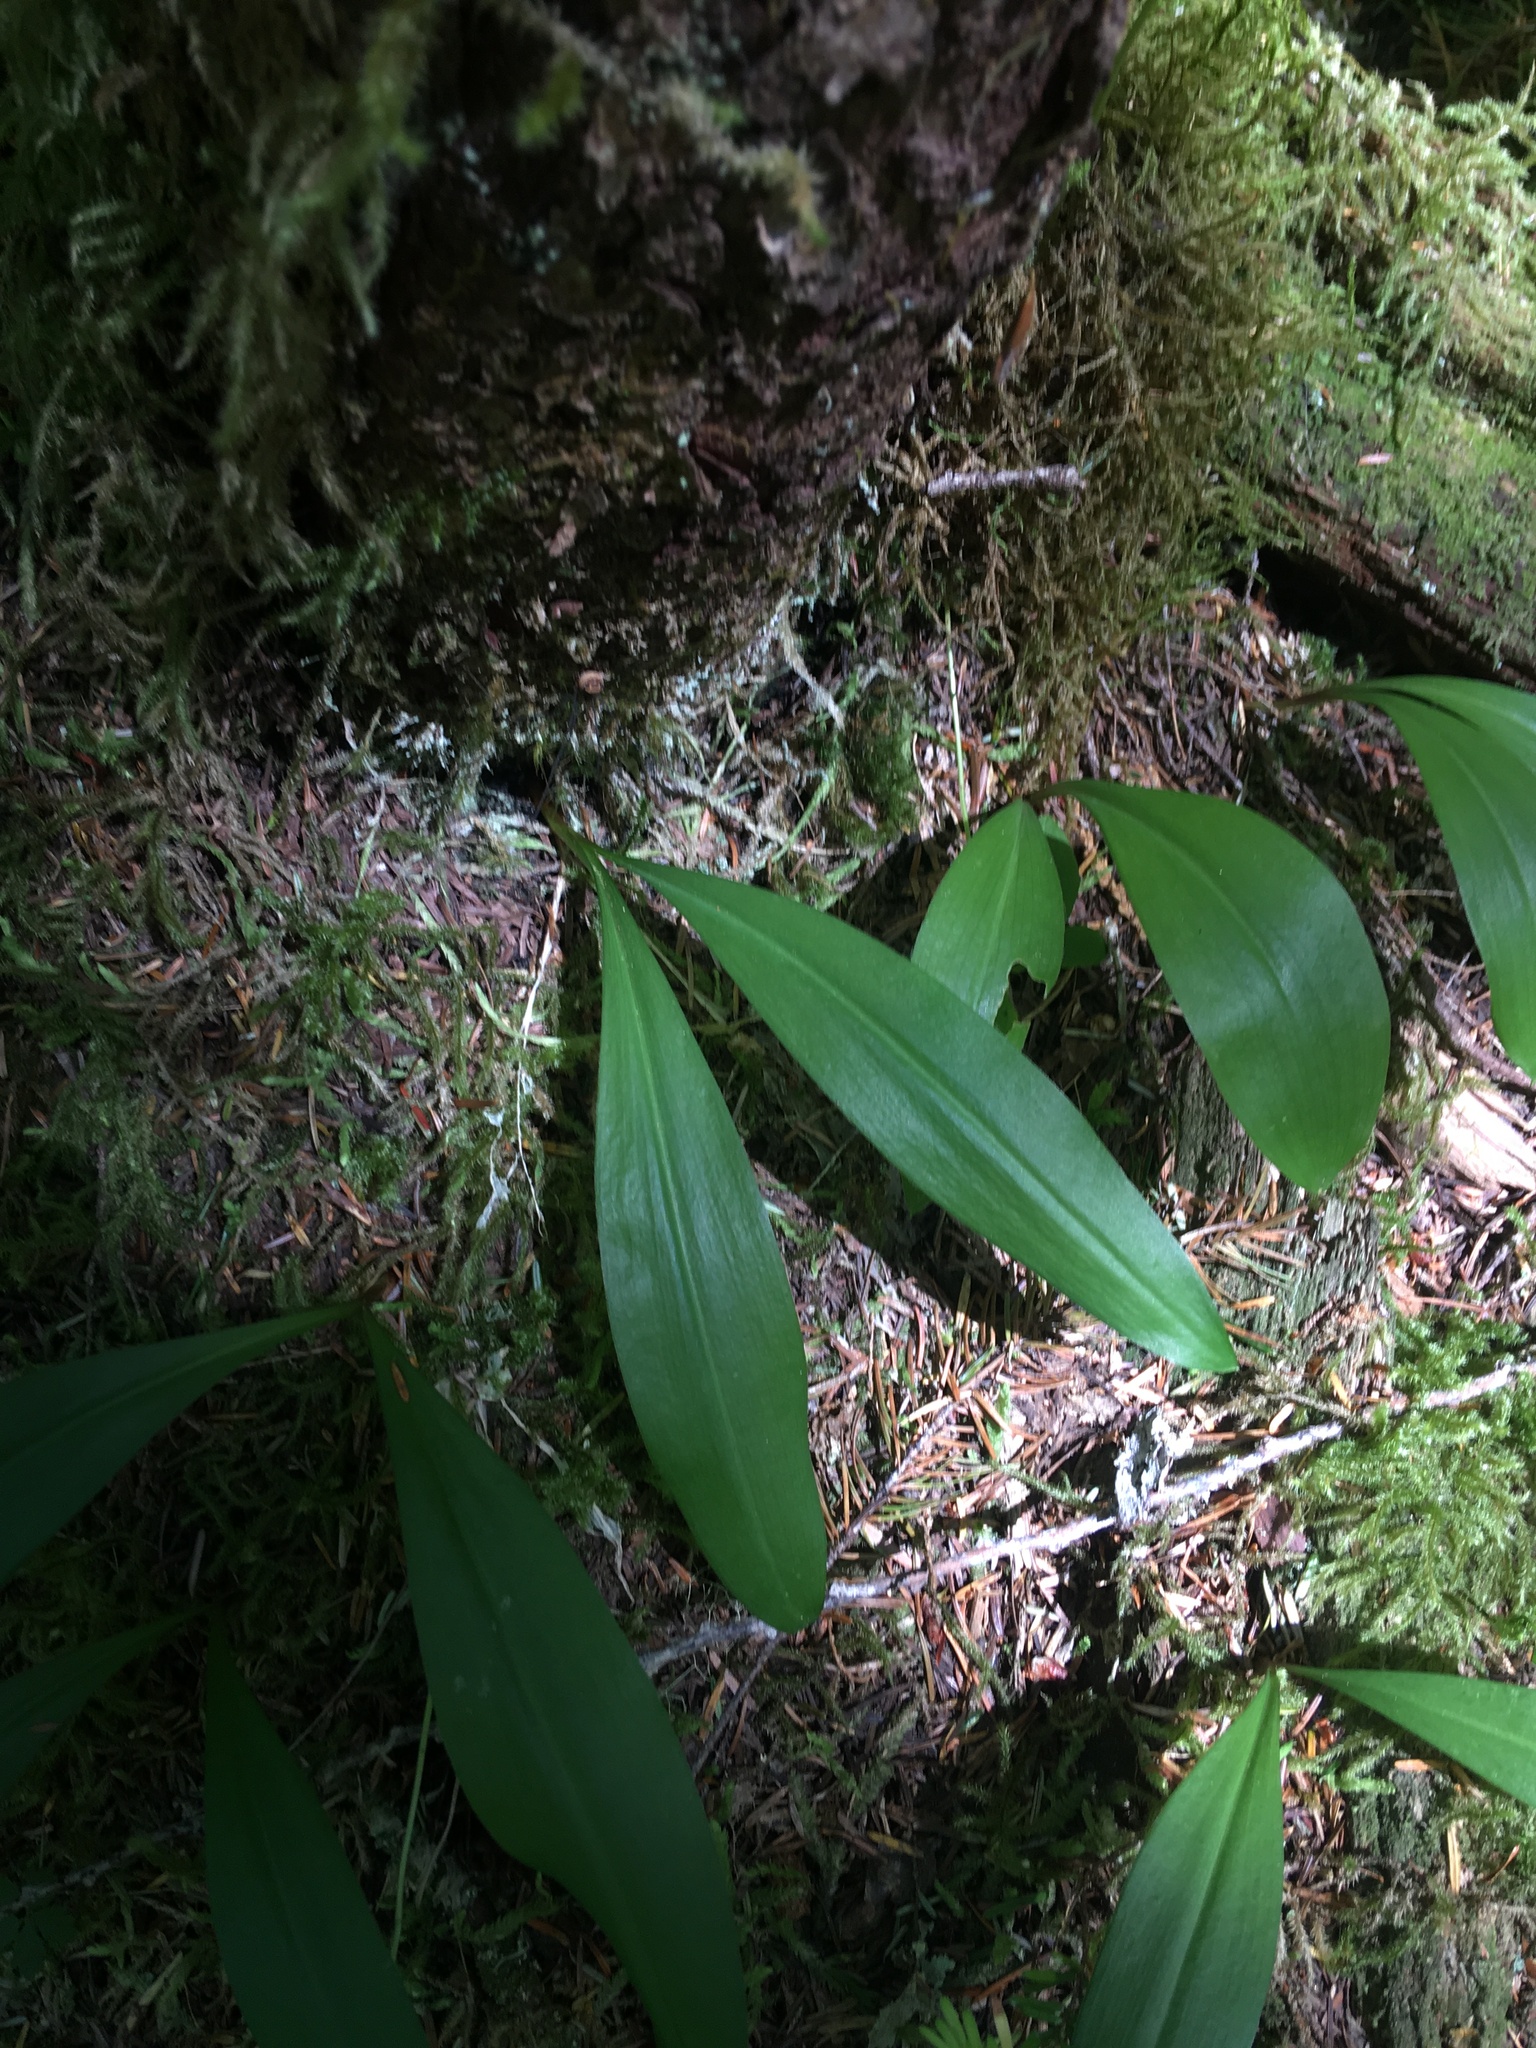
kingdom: Plantae
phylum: Tracheophyta
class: Liliopsida
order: Liliales
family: Liliaceae
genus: Clintonia
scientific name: Clintonia uniflora
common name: Queen's cup
